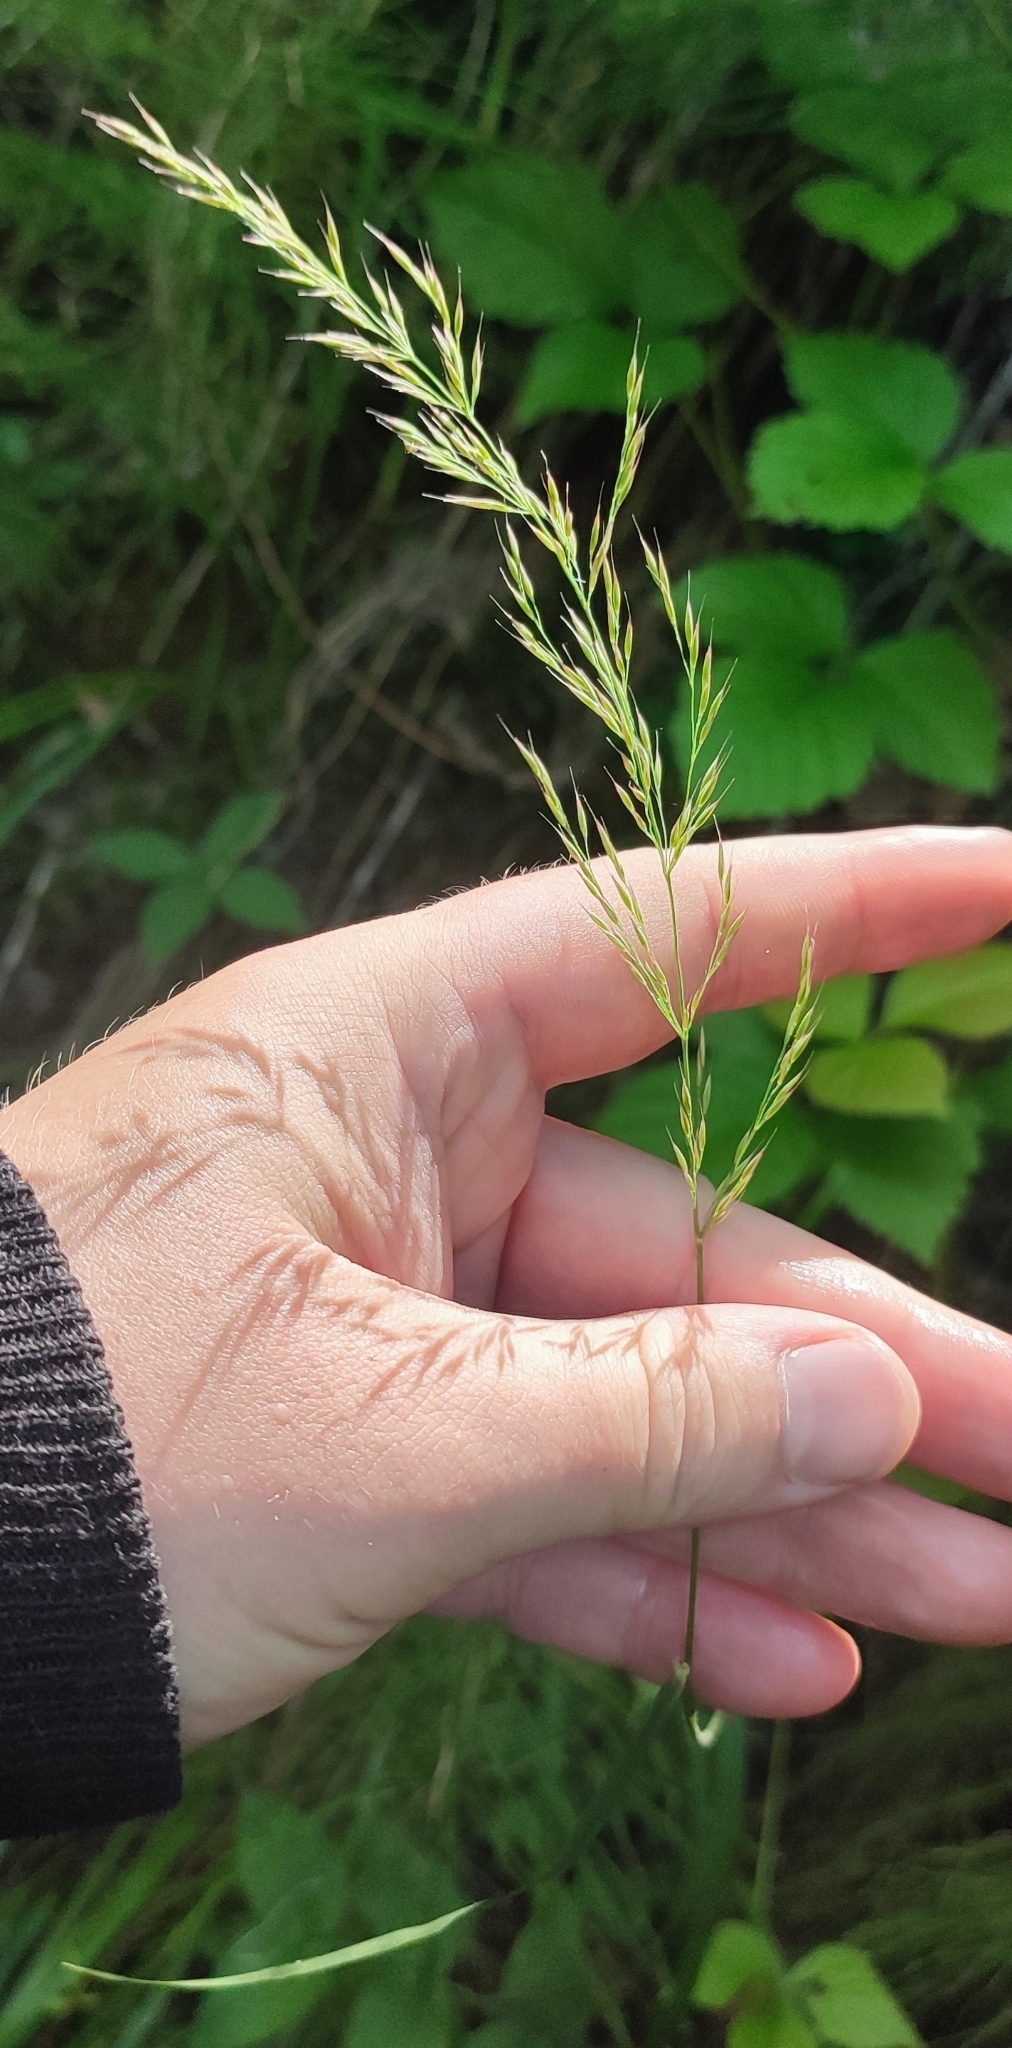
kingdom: Plantae
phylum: Tracheophyta
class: Liliopsida
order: Poales
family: Poaceae
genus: Calamagrostis
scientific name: Calamagrostis arundinacea
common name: Metskastik
